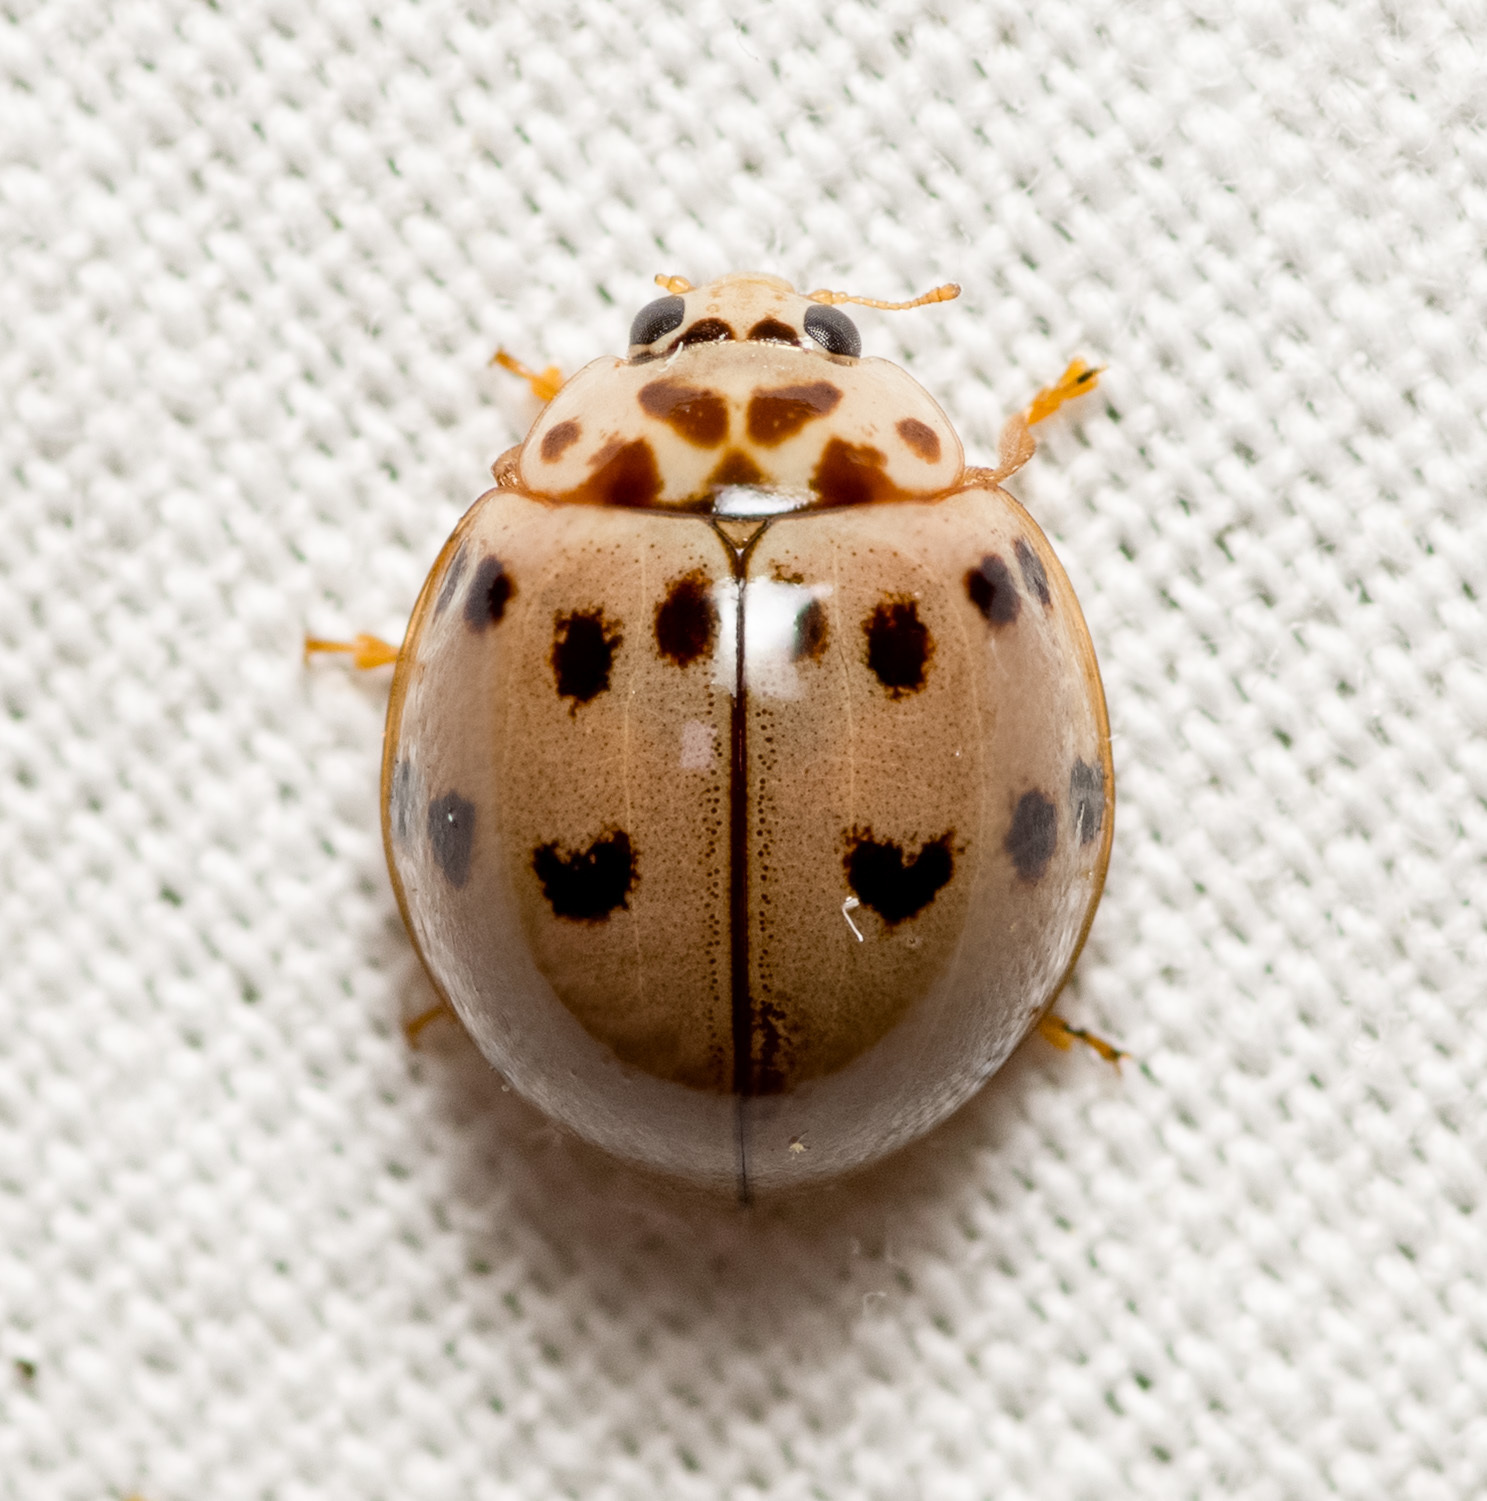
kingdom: Animalia
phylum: Arthropoda
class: Insecta
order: Coleoptera
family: Coccinellidae
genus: Olla
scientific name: Olla v-nigrum
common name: Ashy gray lady beetle
